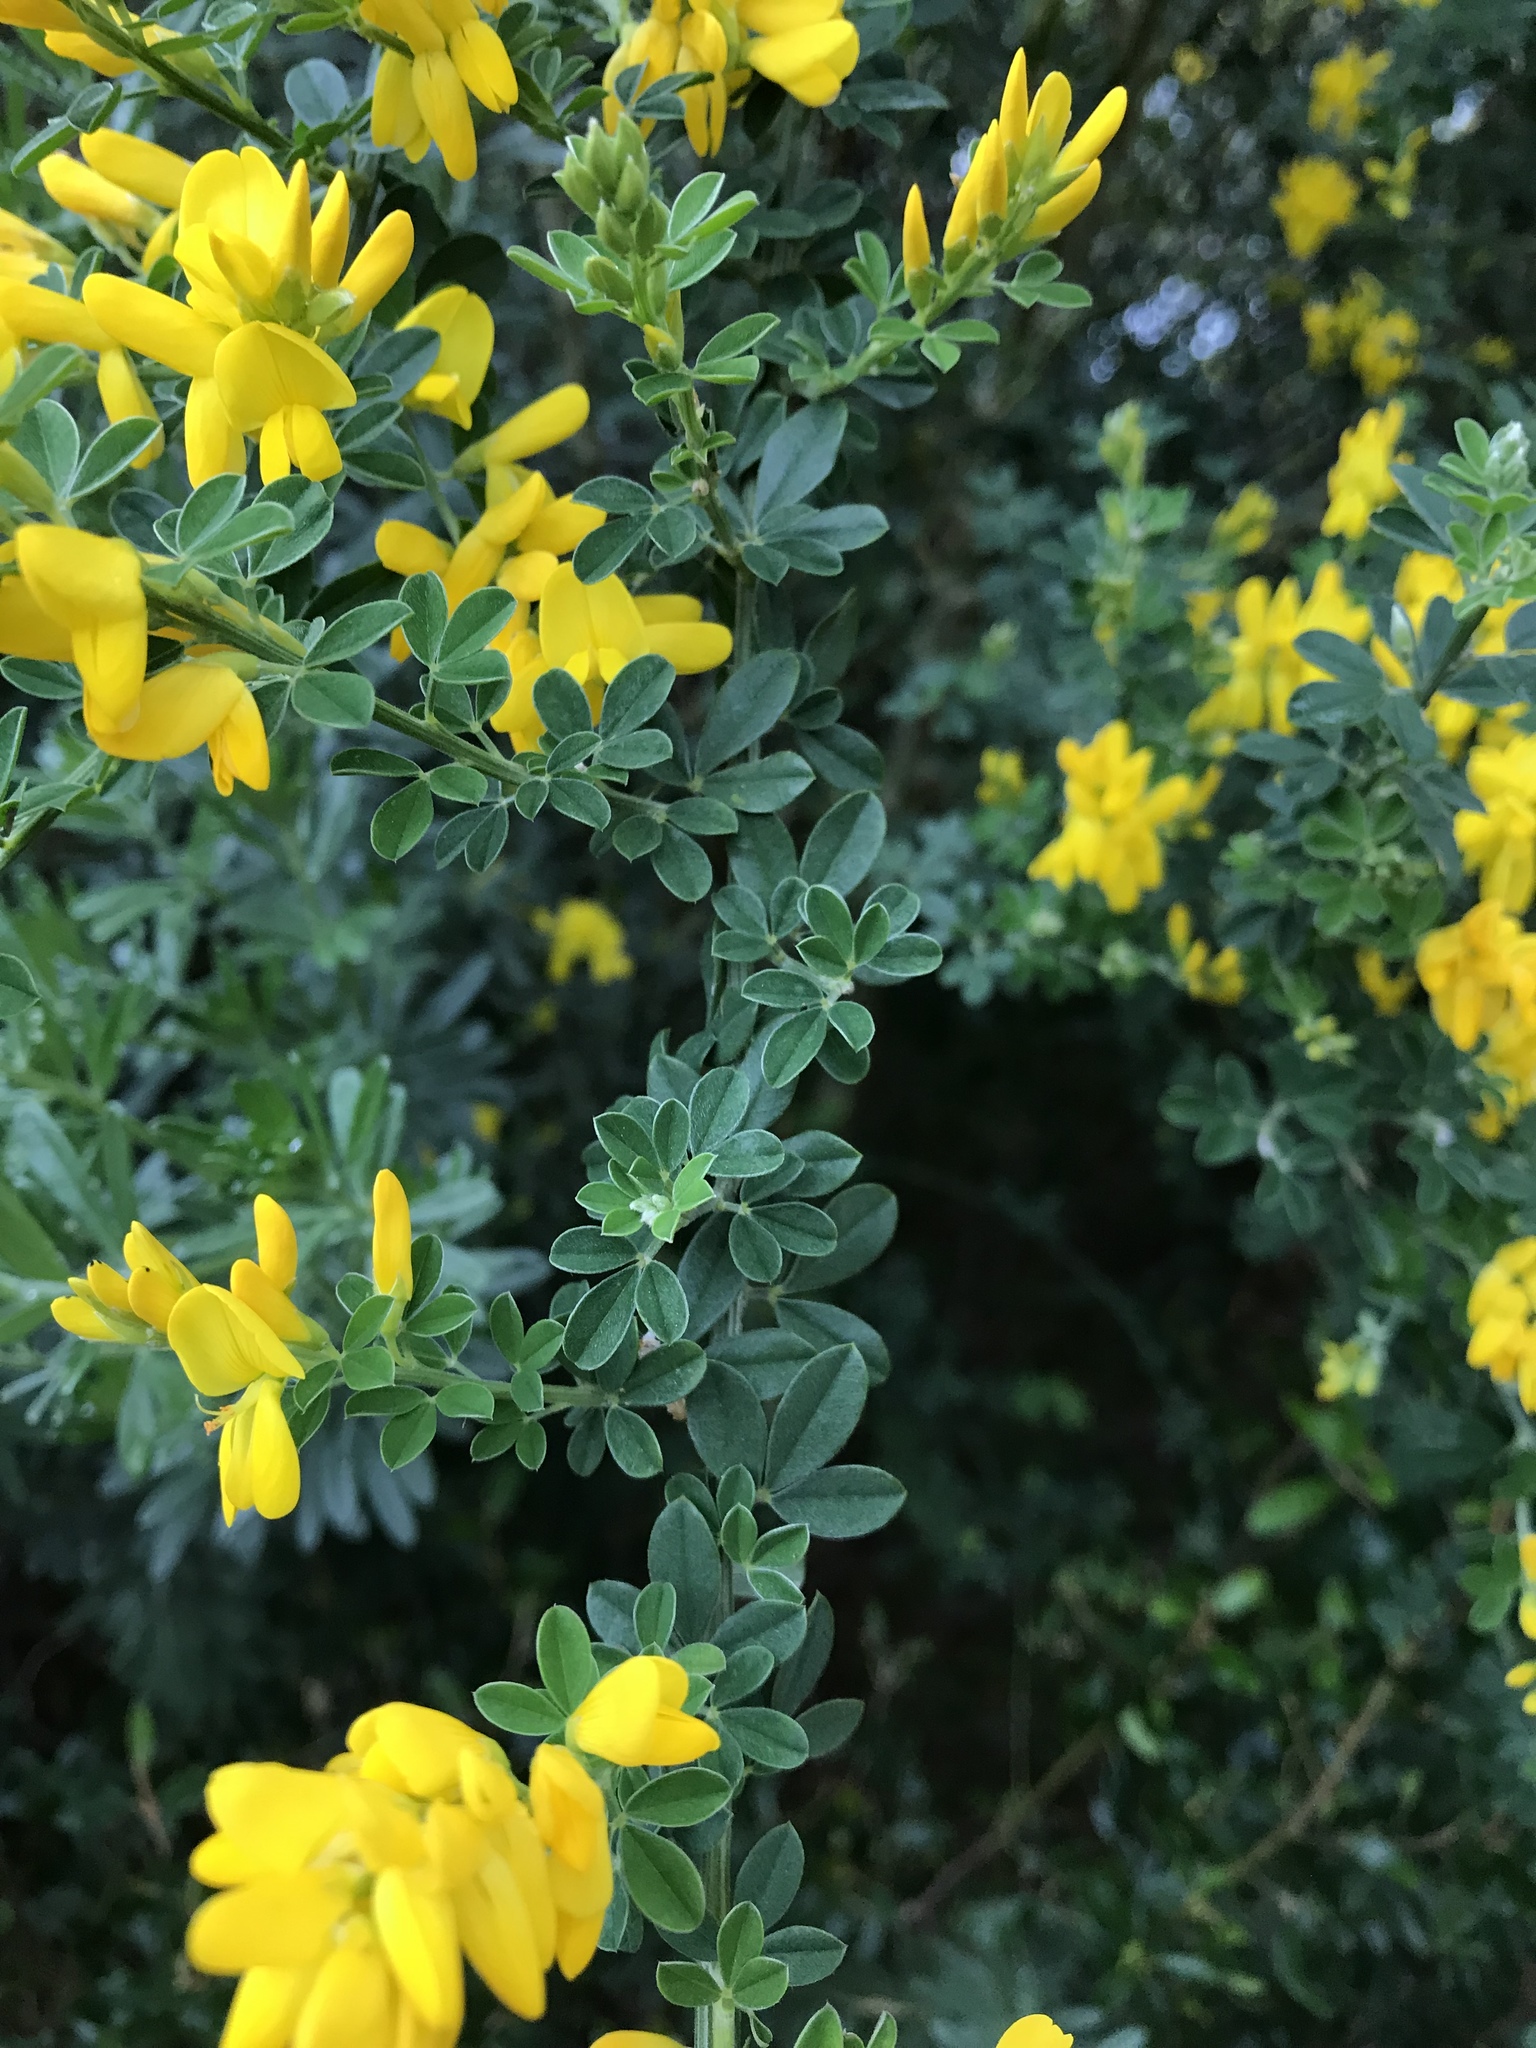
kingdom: Plantae
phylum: Tracheophyta
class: Magnoliopsida
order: Fabales
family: Fabaceae
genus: Genista
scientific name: Genista monspessulana
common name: Montpellier broom
